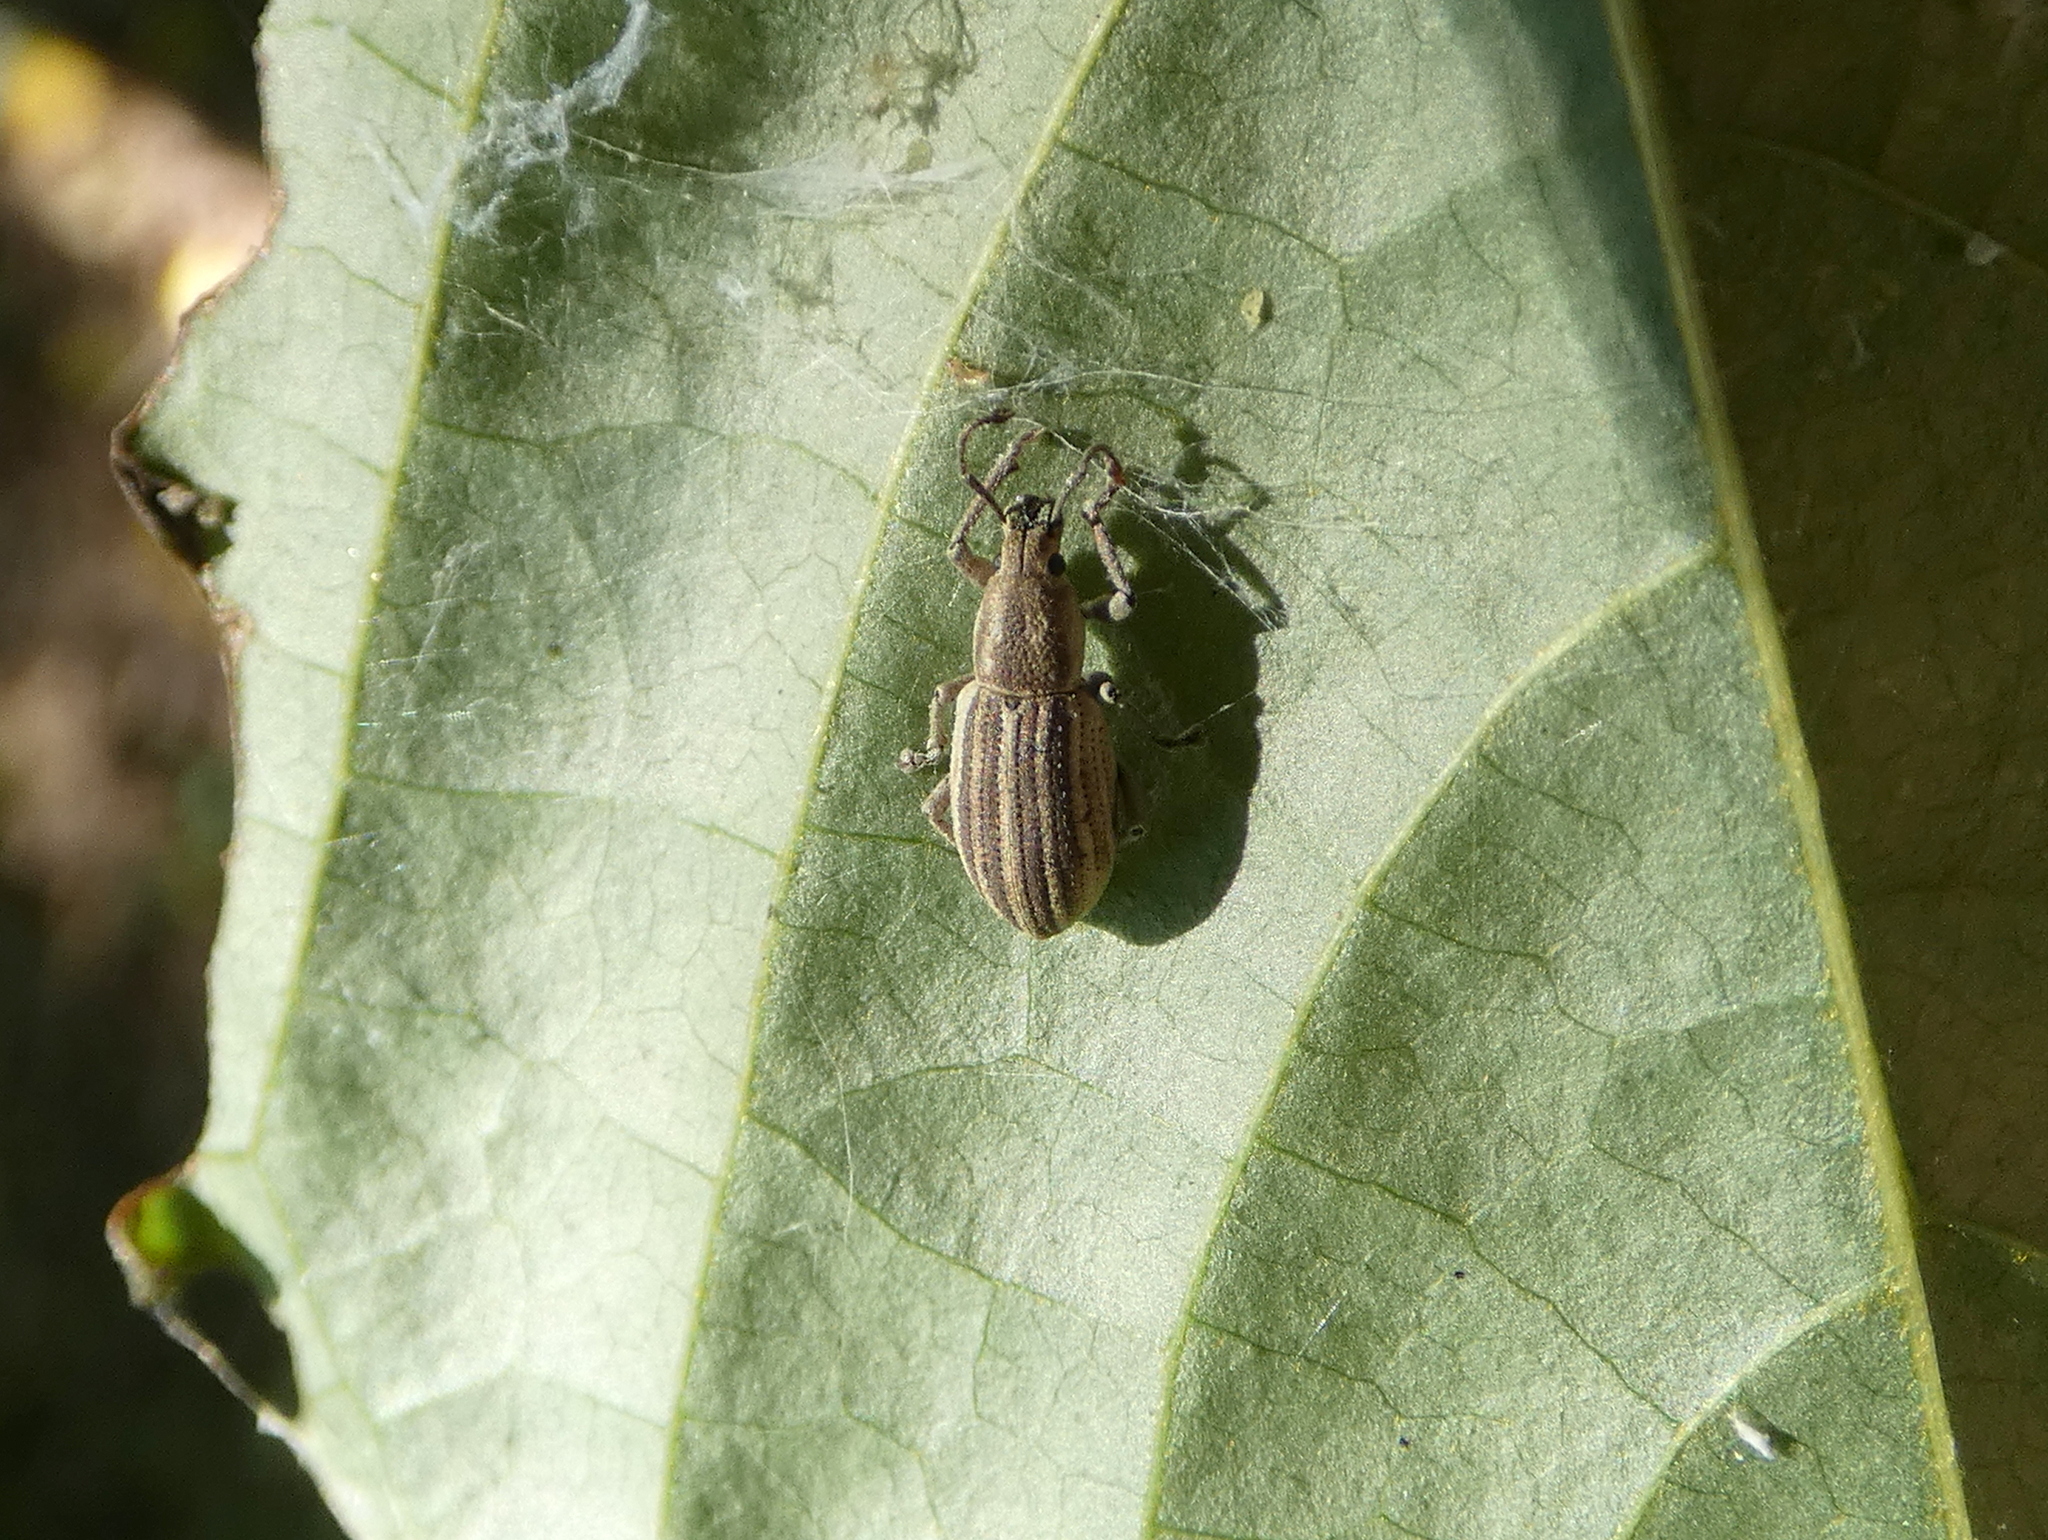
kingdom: Animalia
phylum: Arthropoda
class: Insecta
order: Coleoptera
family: Curculionidae
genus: Aphrastus
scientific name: Aphrastus taeniatus
